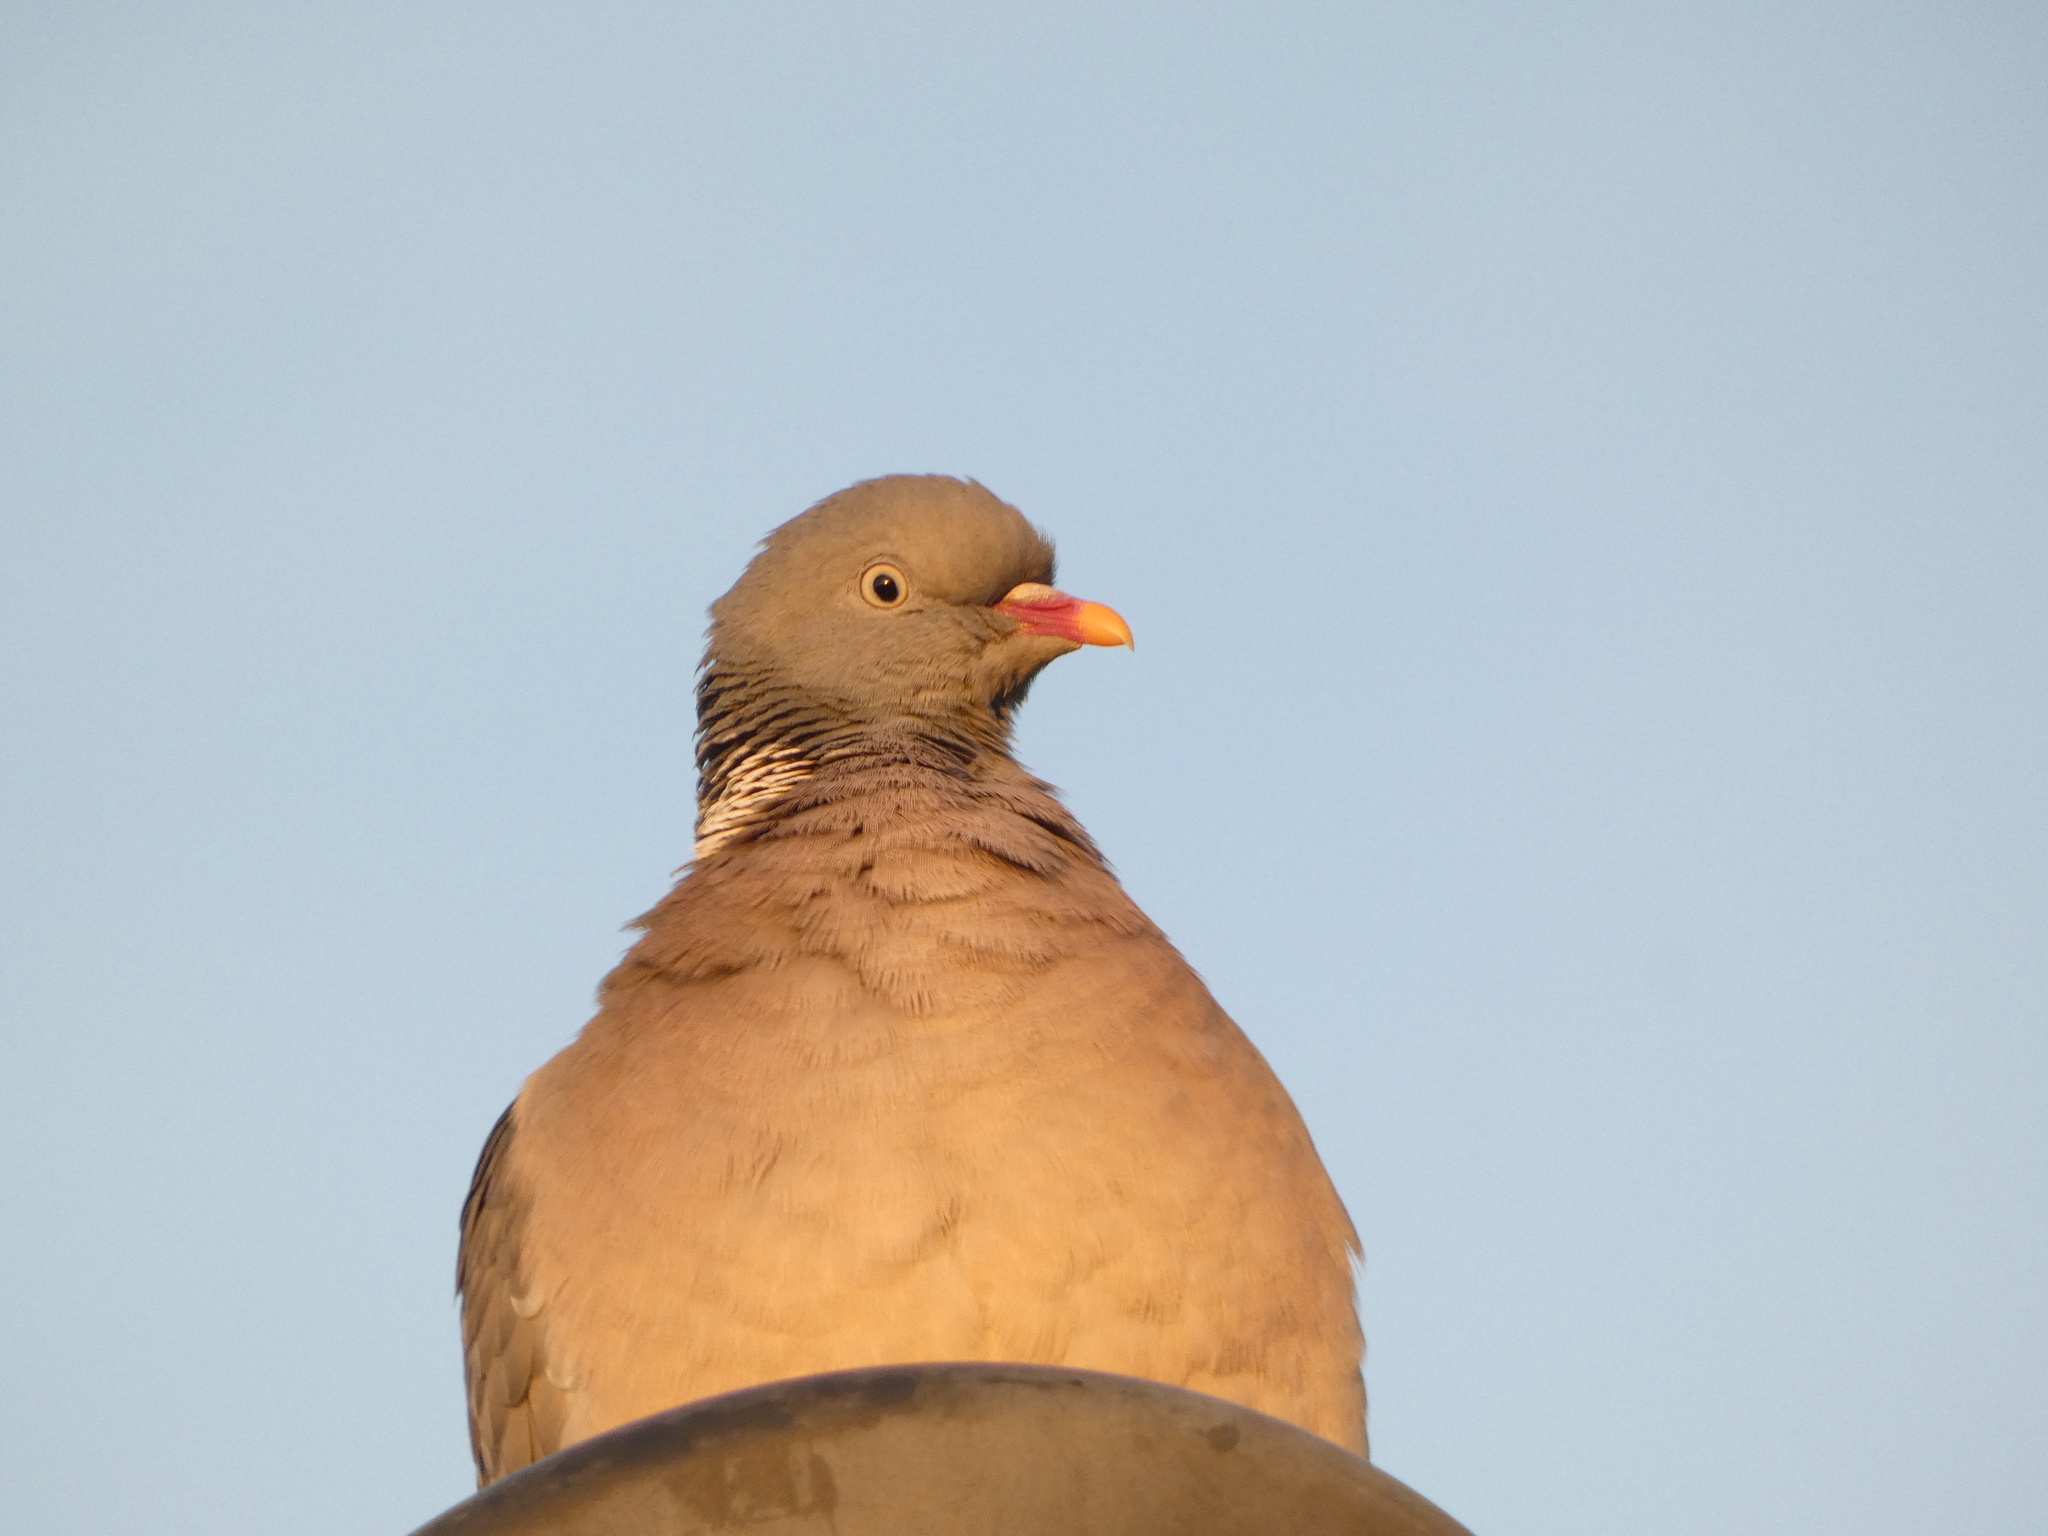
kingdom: Animalia
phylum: Chordata
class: Aves
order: Columbiformes
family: Columbidae
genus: Columba
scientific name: Columba palumbus
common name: Common wood pigeon
